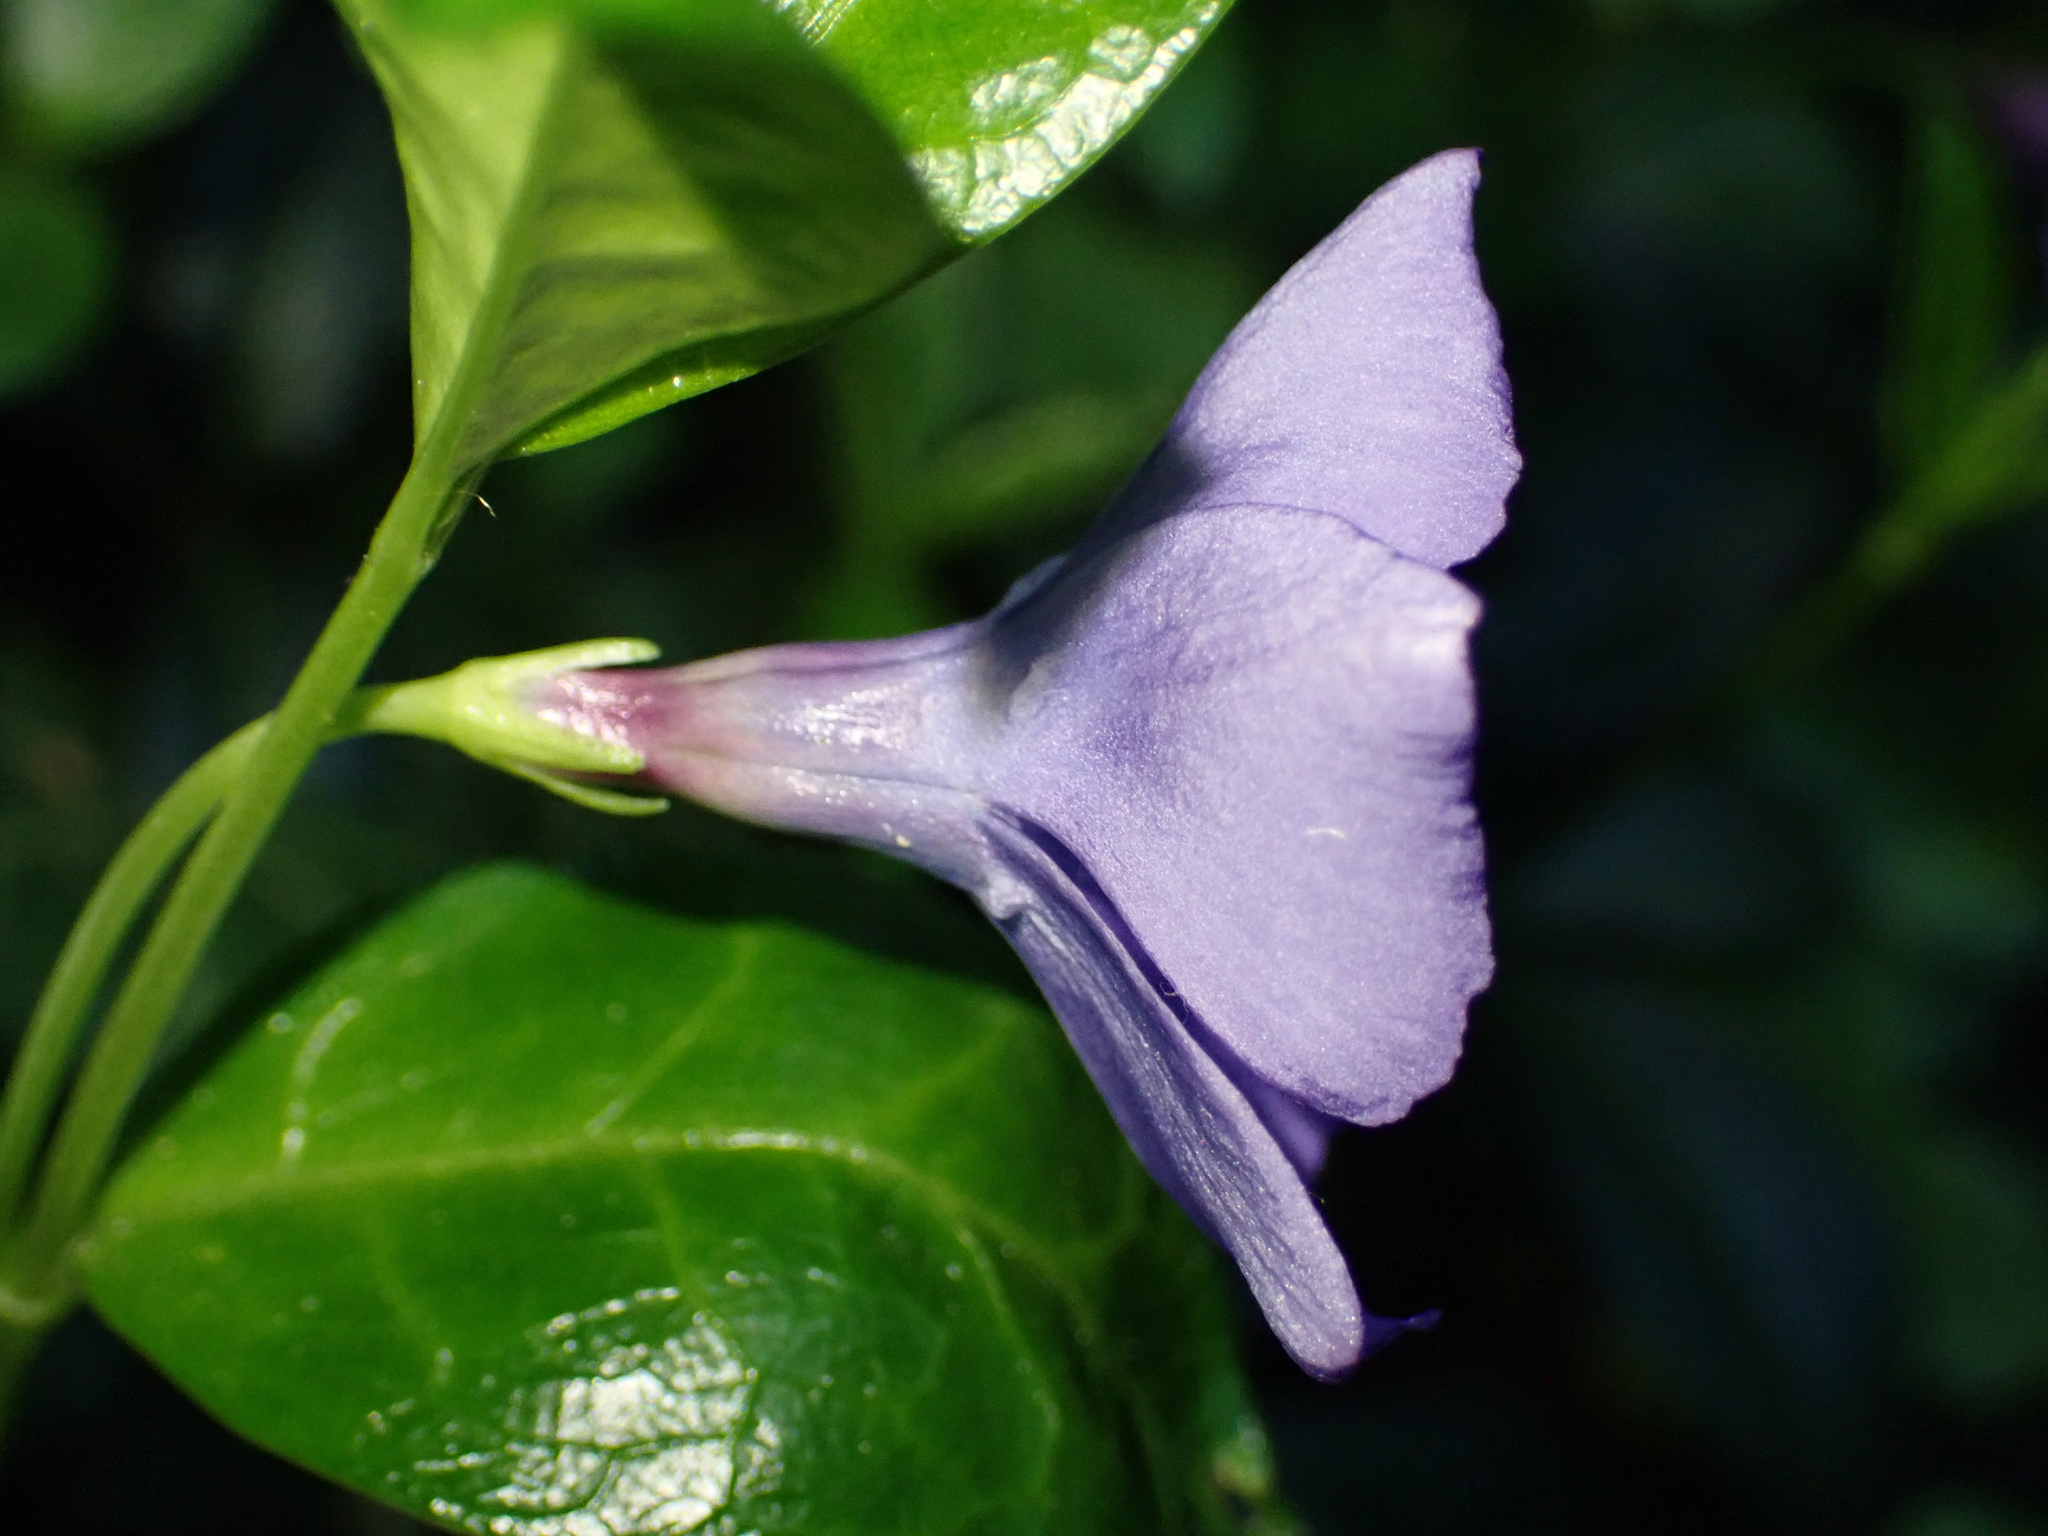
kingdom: Plantae
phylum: Tracheophyta
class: Magnoliopsida
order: Gentianales
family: Apocynaceae
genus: Vinca
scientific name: Vinca minor
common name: Lesser periwinkle
